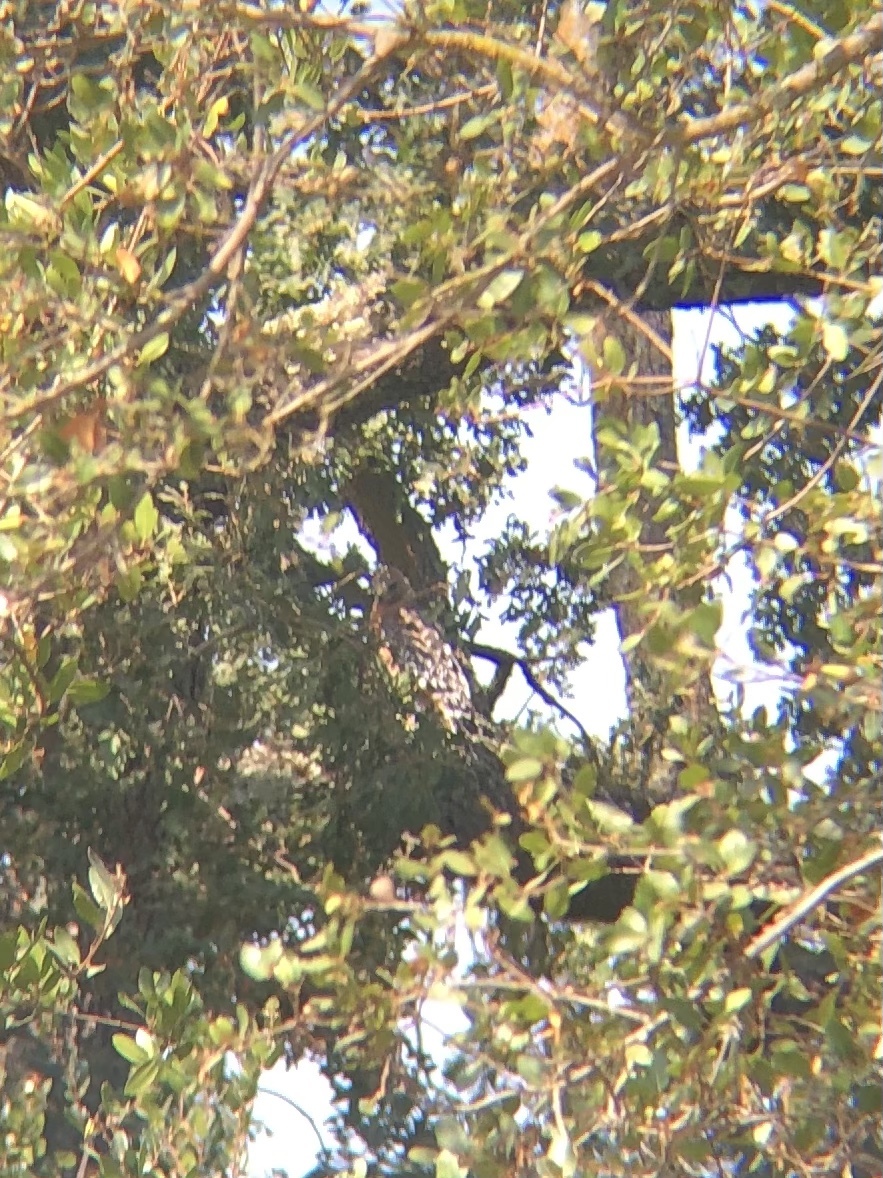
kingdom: Animalia
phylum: Chordata
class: Aves
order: Accipitriformes
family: Accipitridae
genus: Buteo
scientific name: Buteo lineatus
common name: Red-shouldered hawk
